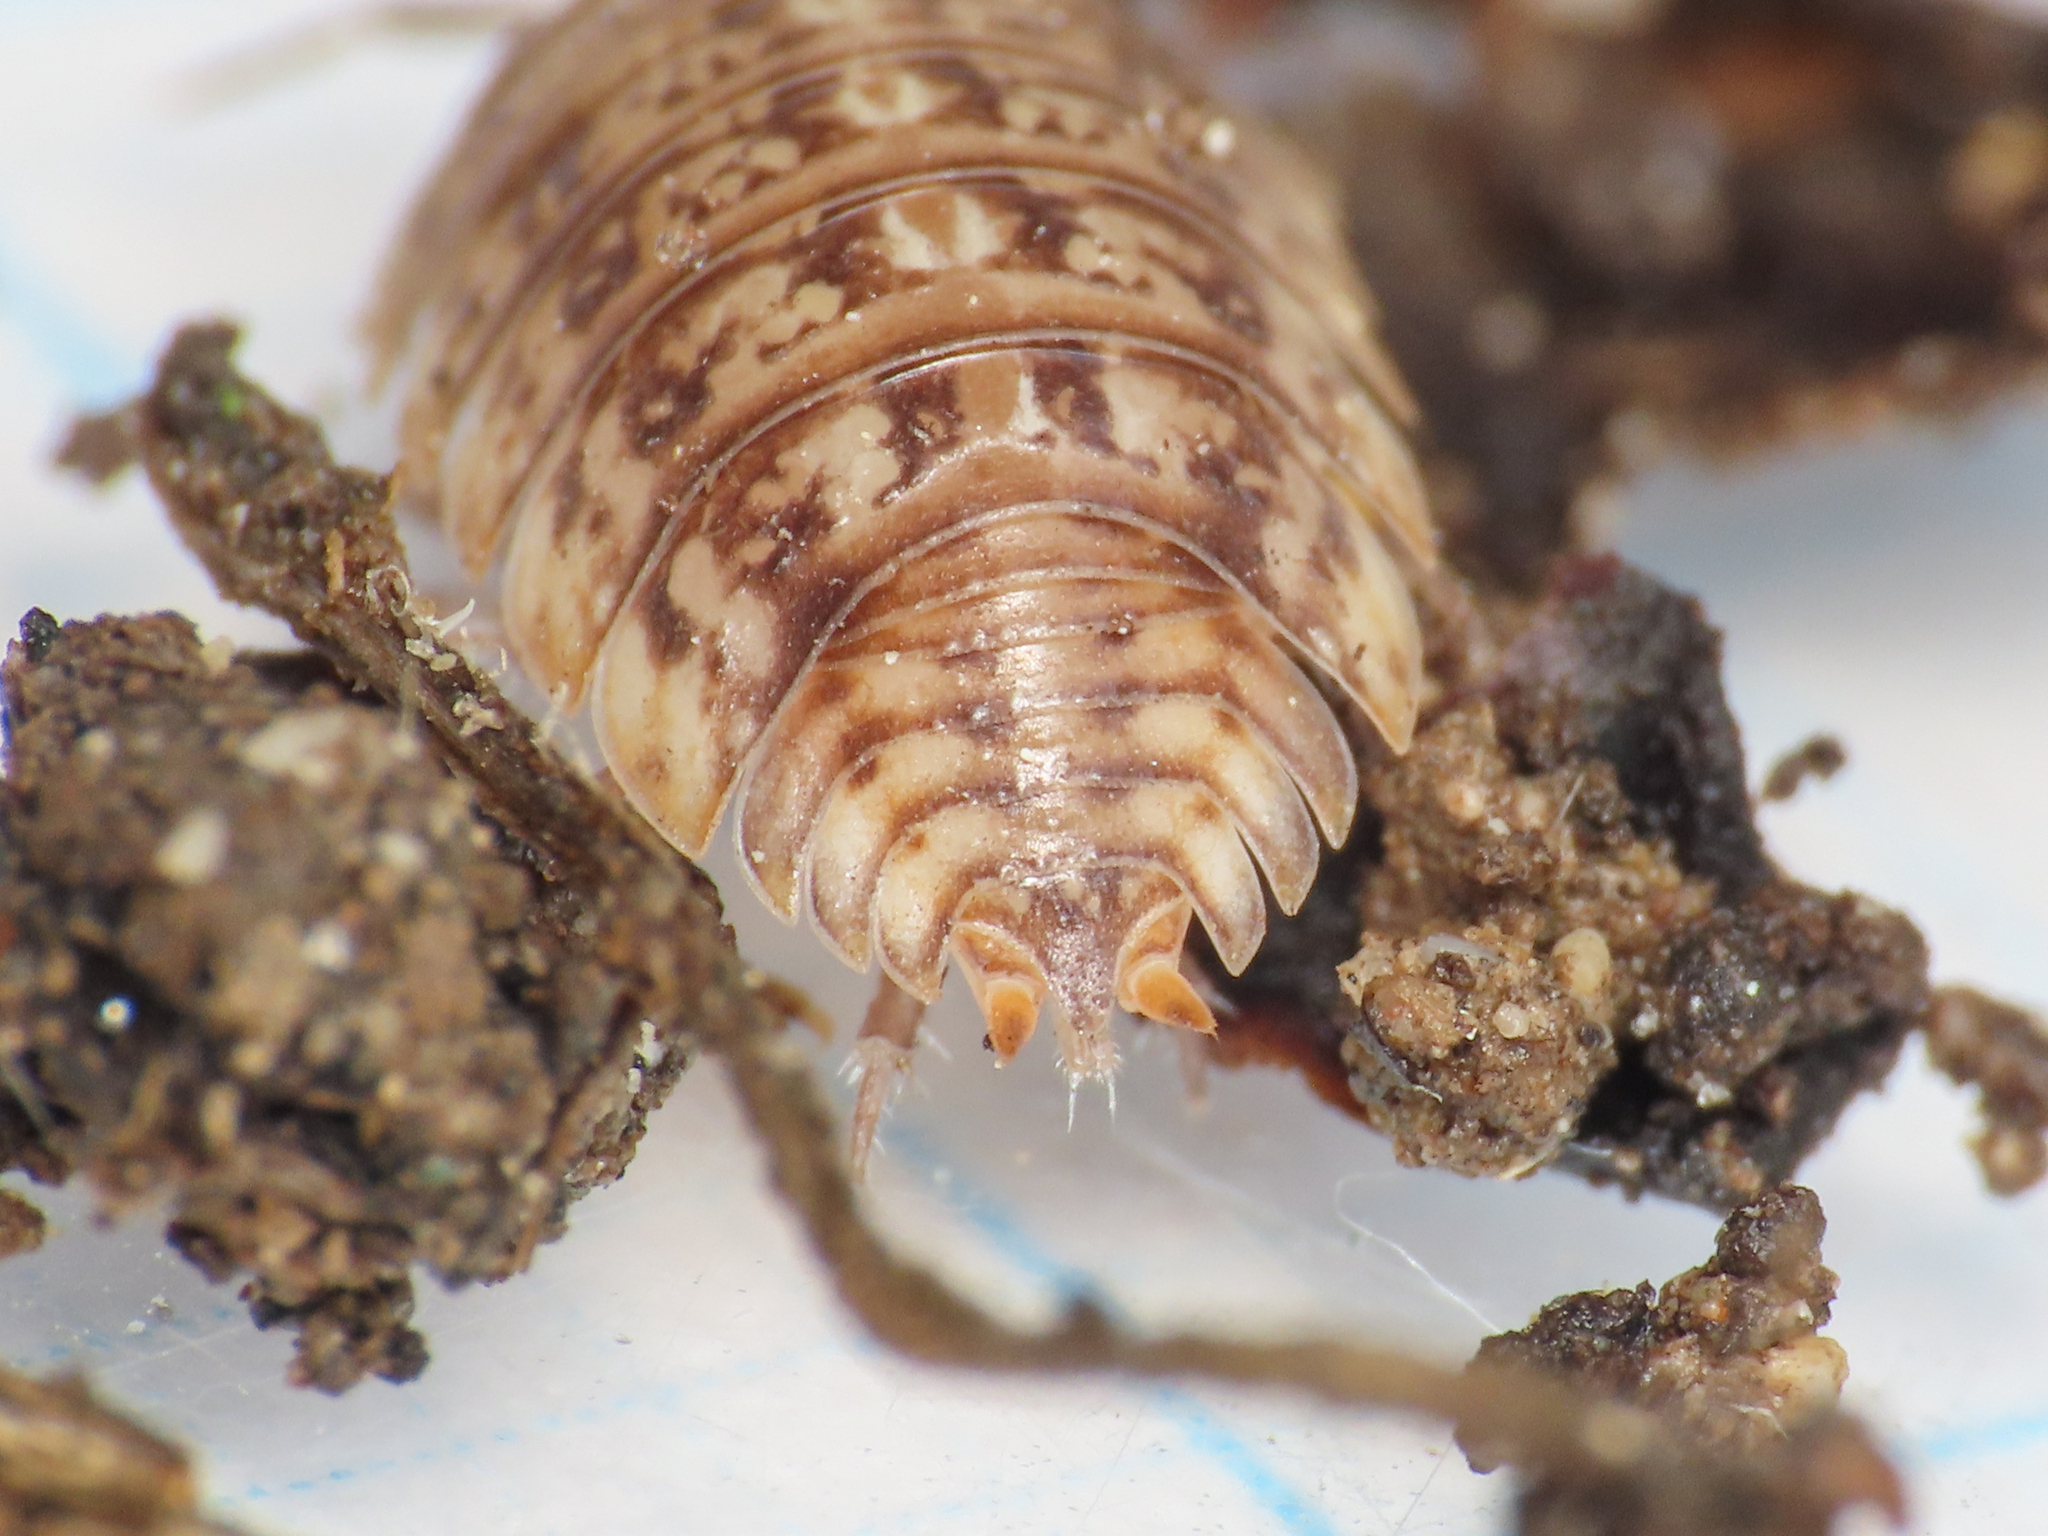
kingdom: Animalia
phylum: Arthropoda
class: Malacostraca
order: Isopoda
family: Trachelipodidae
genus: Trachelipus
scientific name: Trachelipus razzautii
